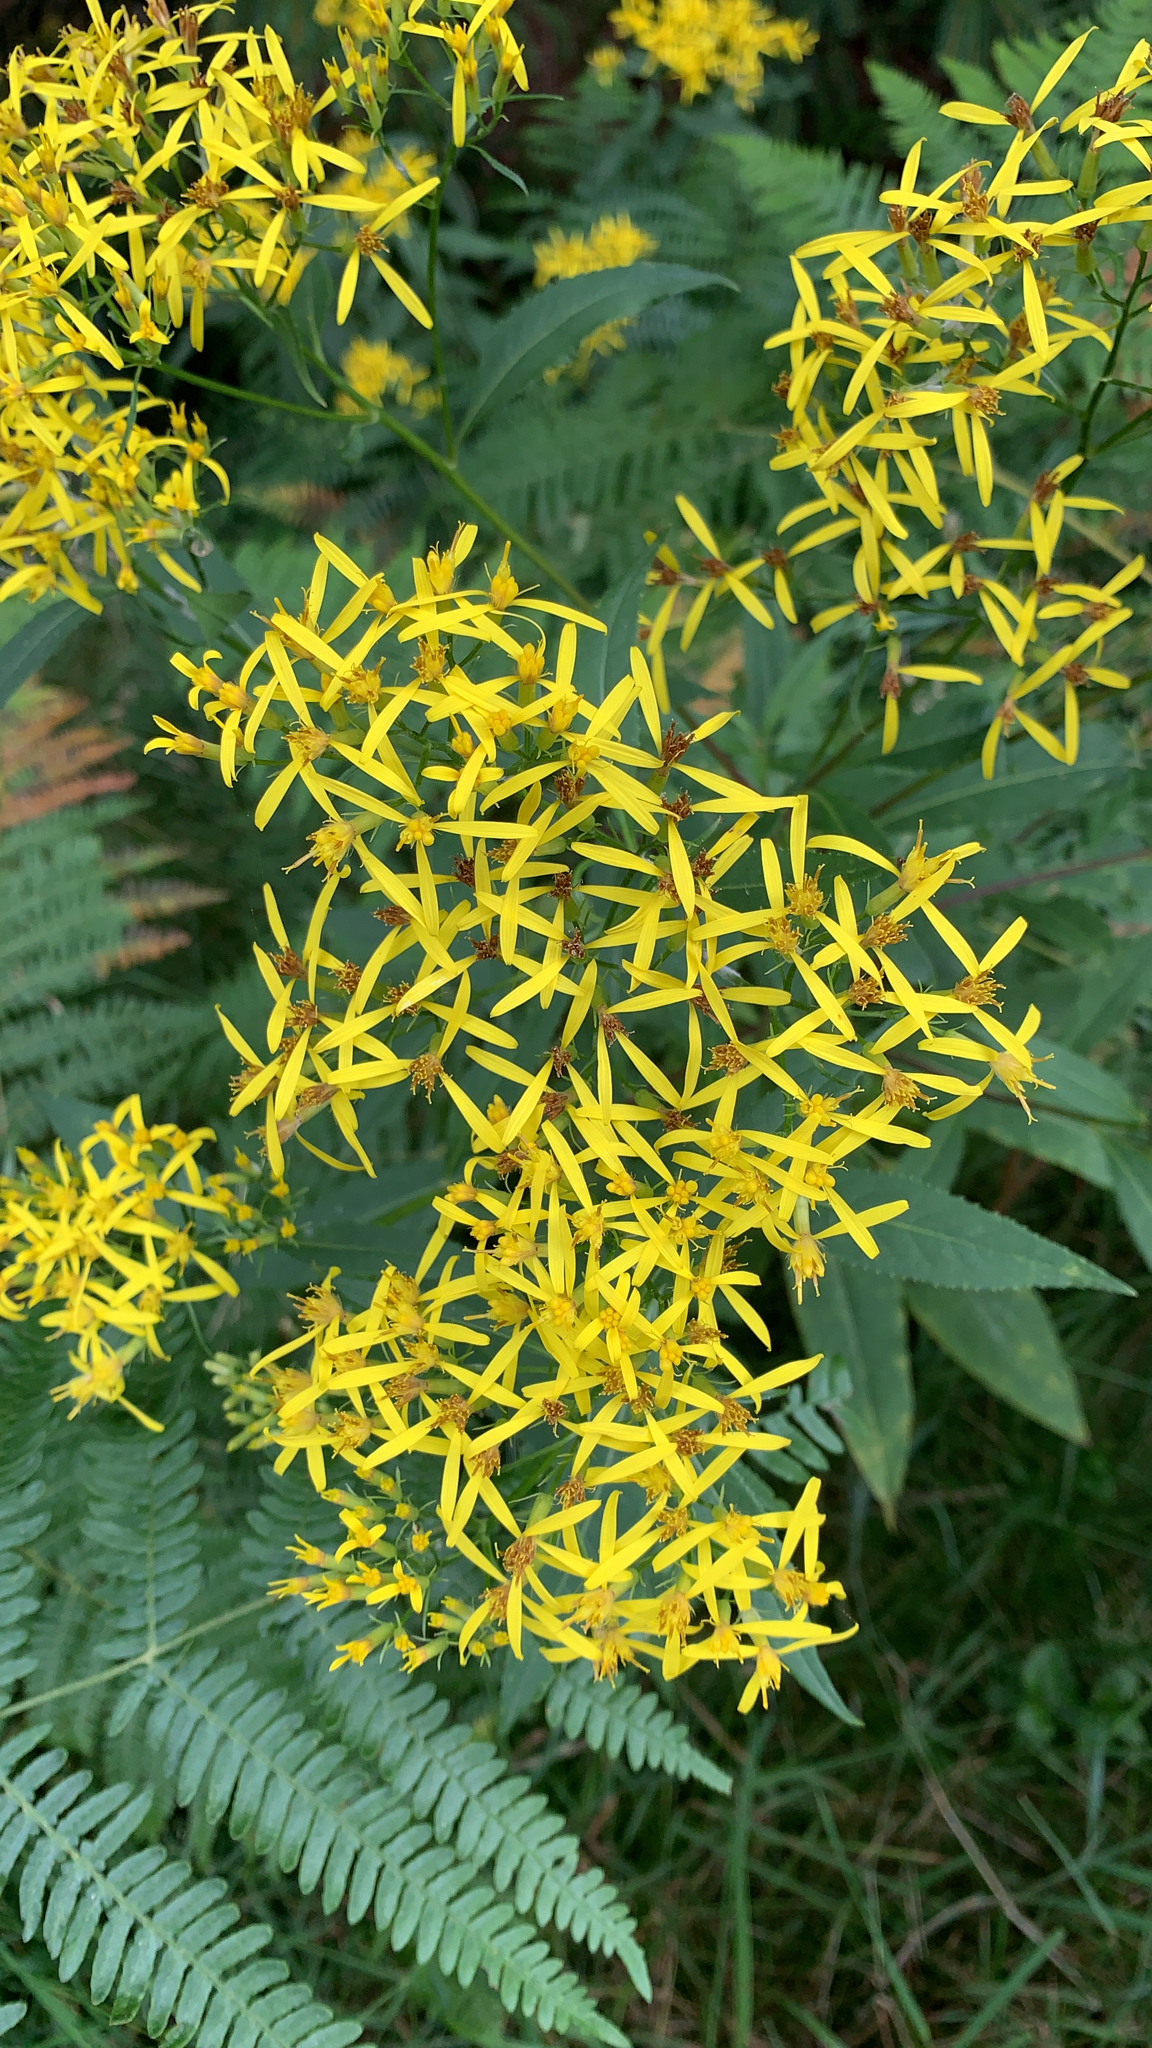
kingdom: Plantae
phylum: Tracheophyta
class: Magnoliopsida
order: Asterales
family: Asteraceae
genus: Senecio
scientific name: Senecio ovatus
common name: Wood ragwort
